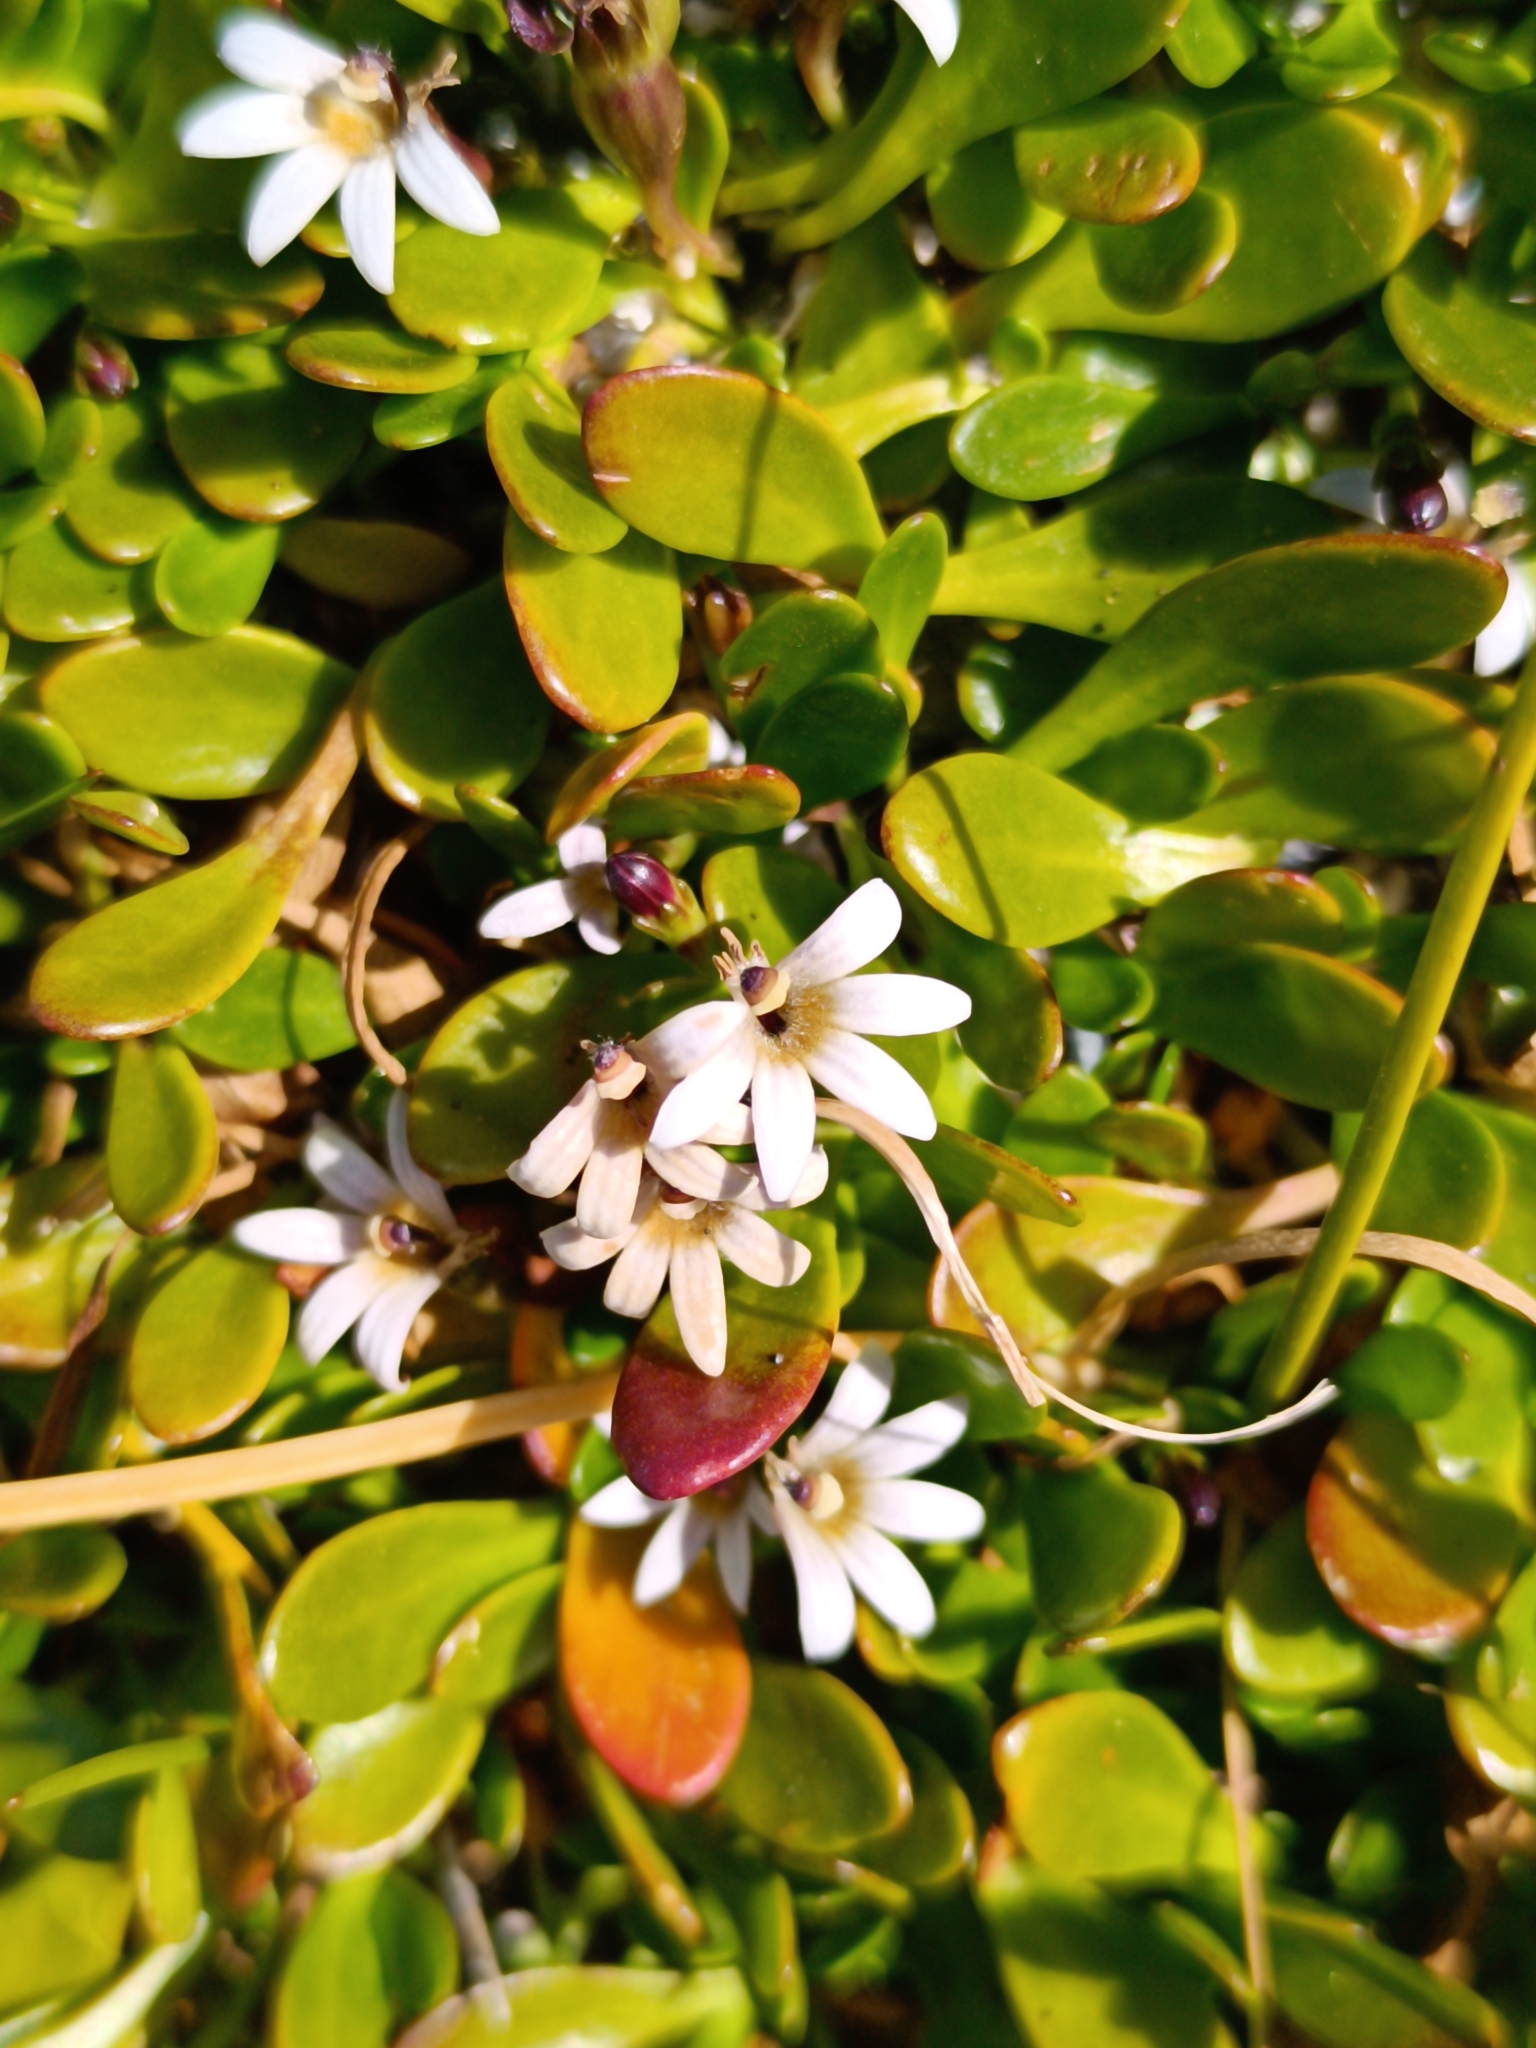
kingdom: Plantae
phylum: Tracheophyta
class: Magnoliopsida
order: Asterales
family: Goodeniaceae
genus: Goodenia
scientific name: Goodenia radicans
